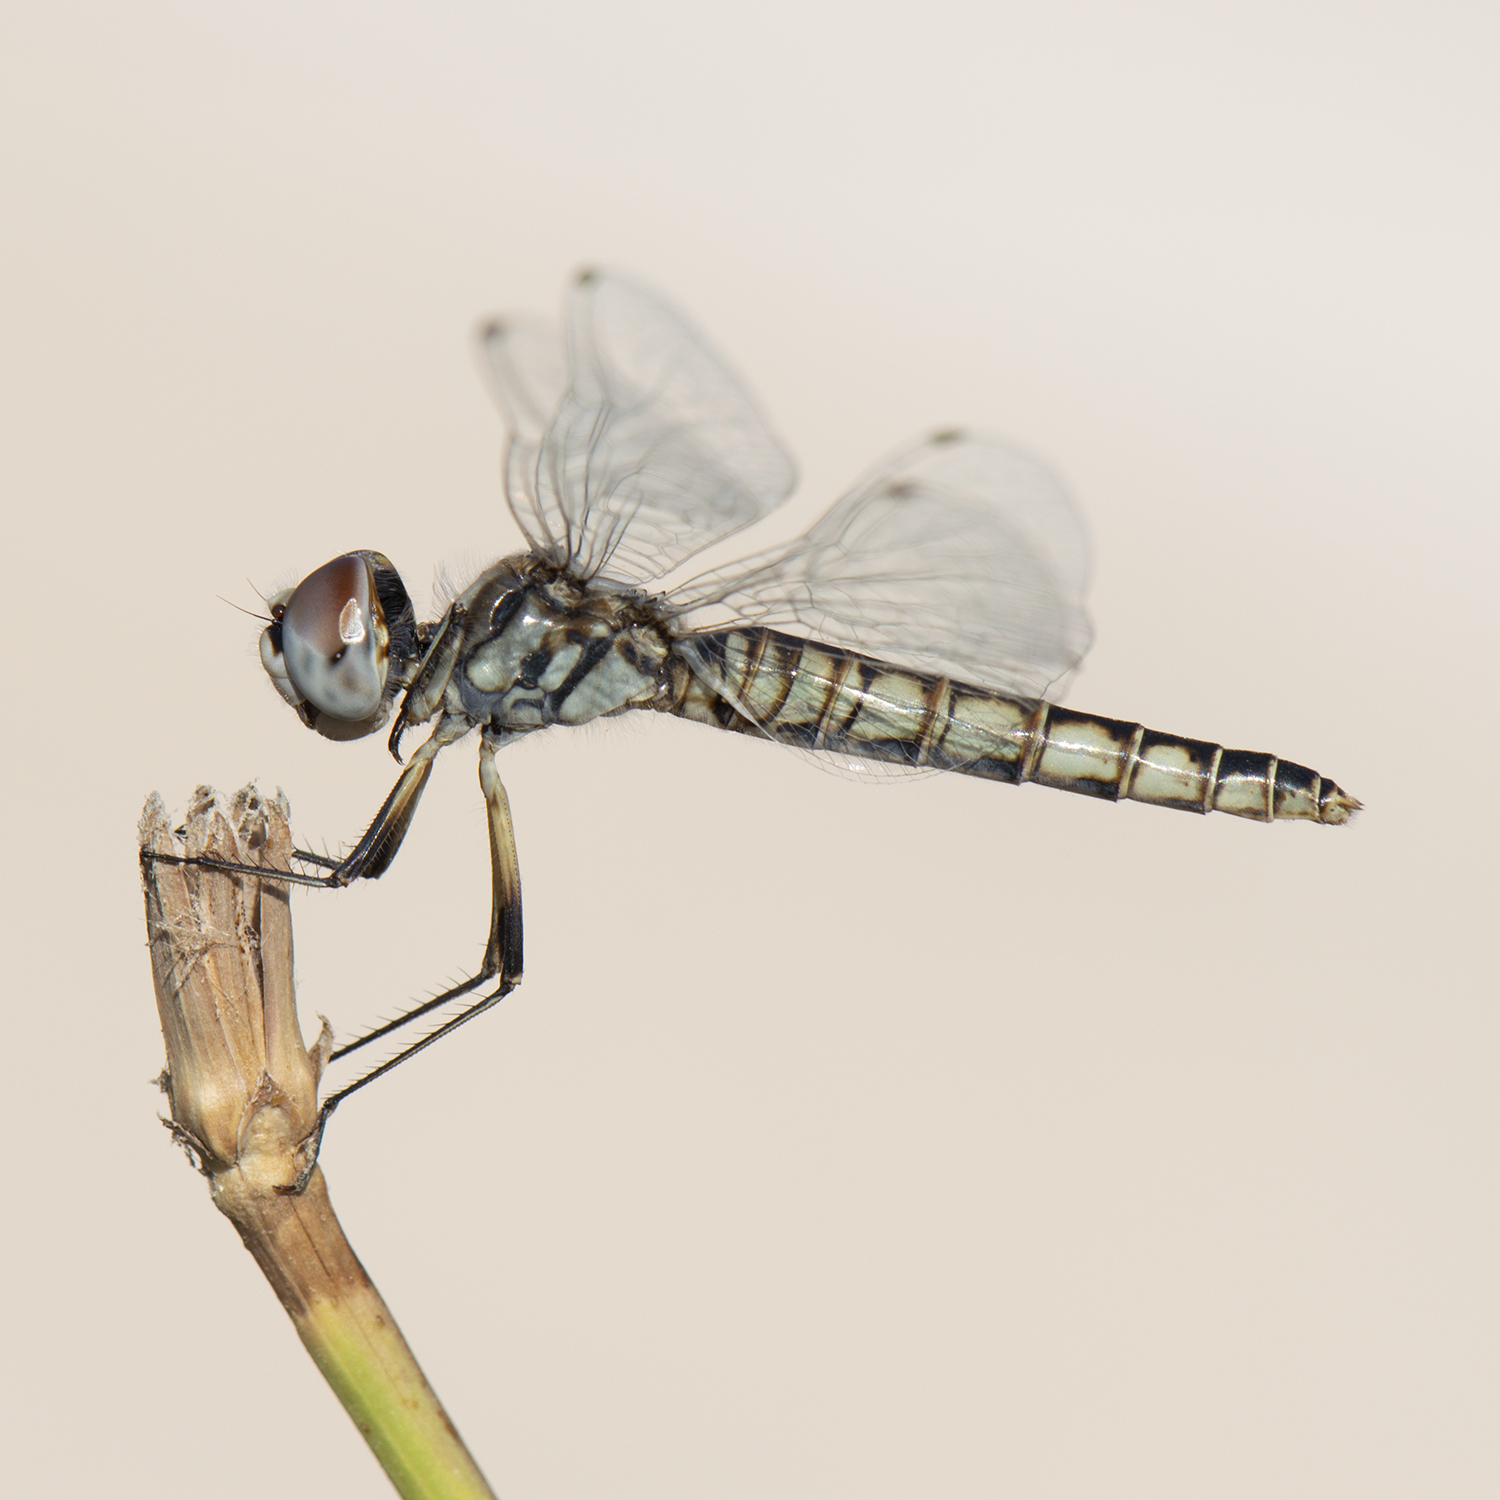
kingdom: Animalia
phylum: Arthropoda
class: Insecta
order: Odonata
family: Libellulidae
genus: Selysiothemis
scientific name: Selysiothemis nigra
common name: Black pennant
